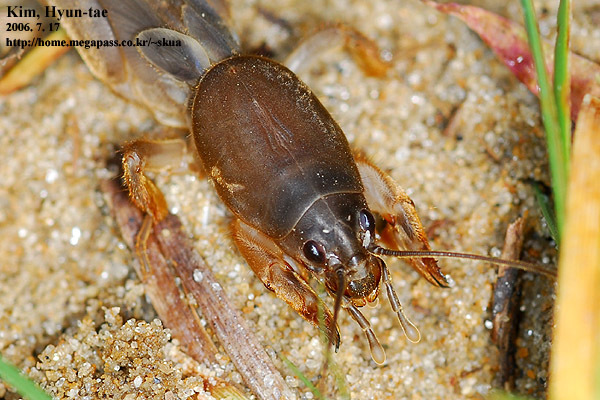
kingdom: Animalia
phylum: Arthropoda
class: Insecta
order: Orthoptera
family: Gryllotalpidae
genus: Gryllotalpa
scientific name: Gryllotalpa orientalis
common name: Grasshopper
